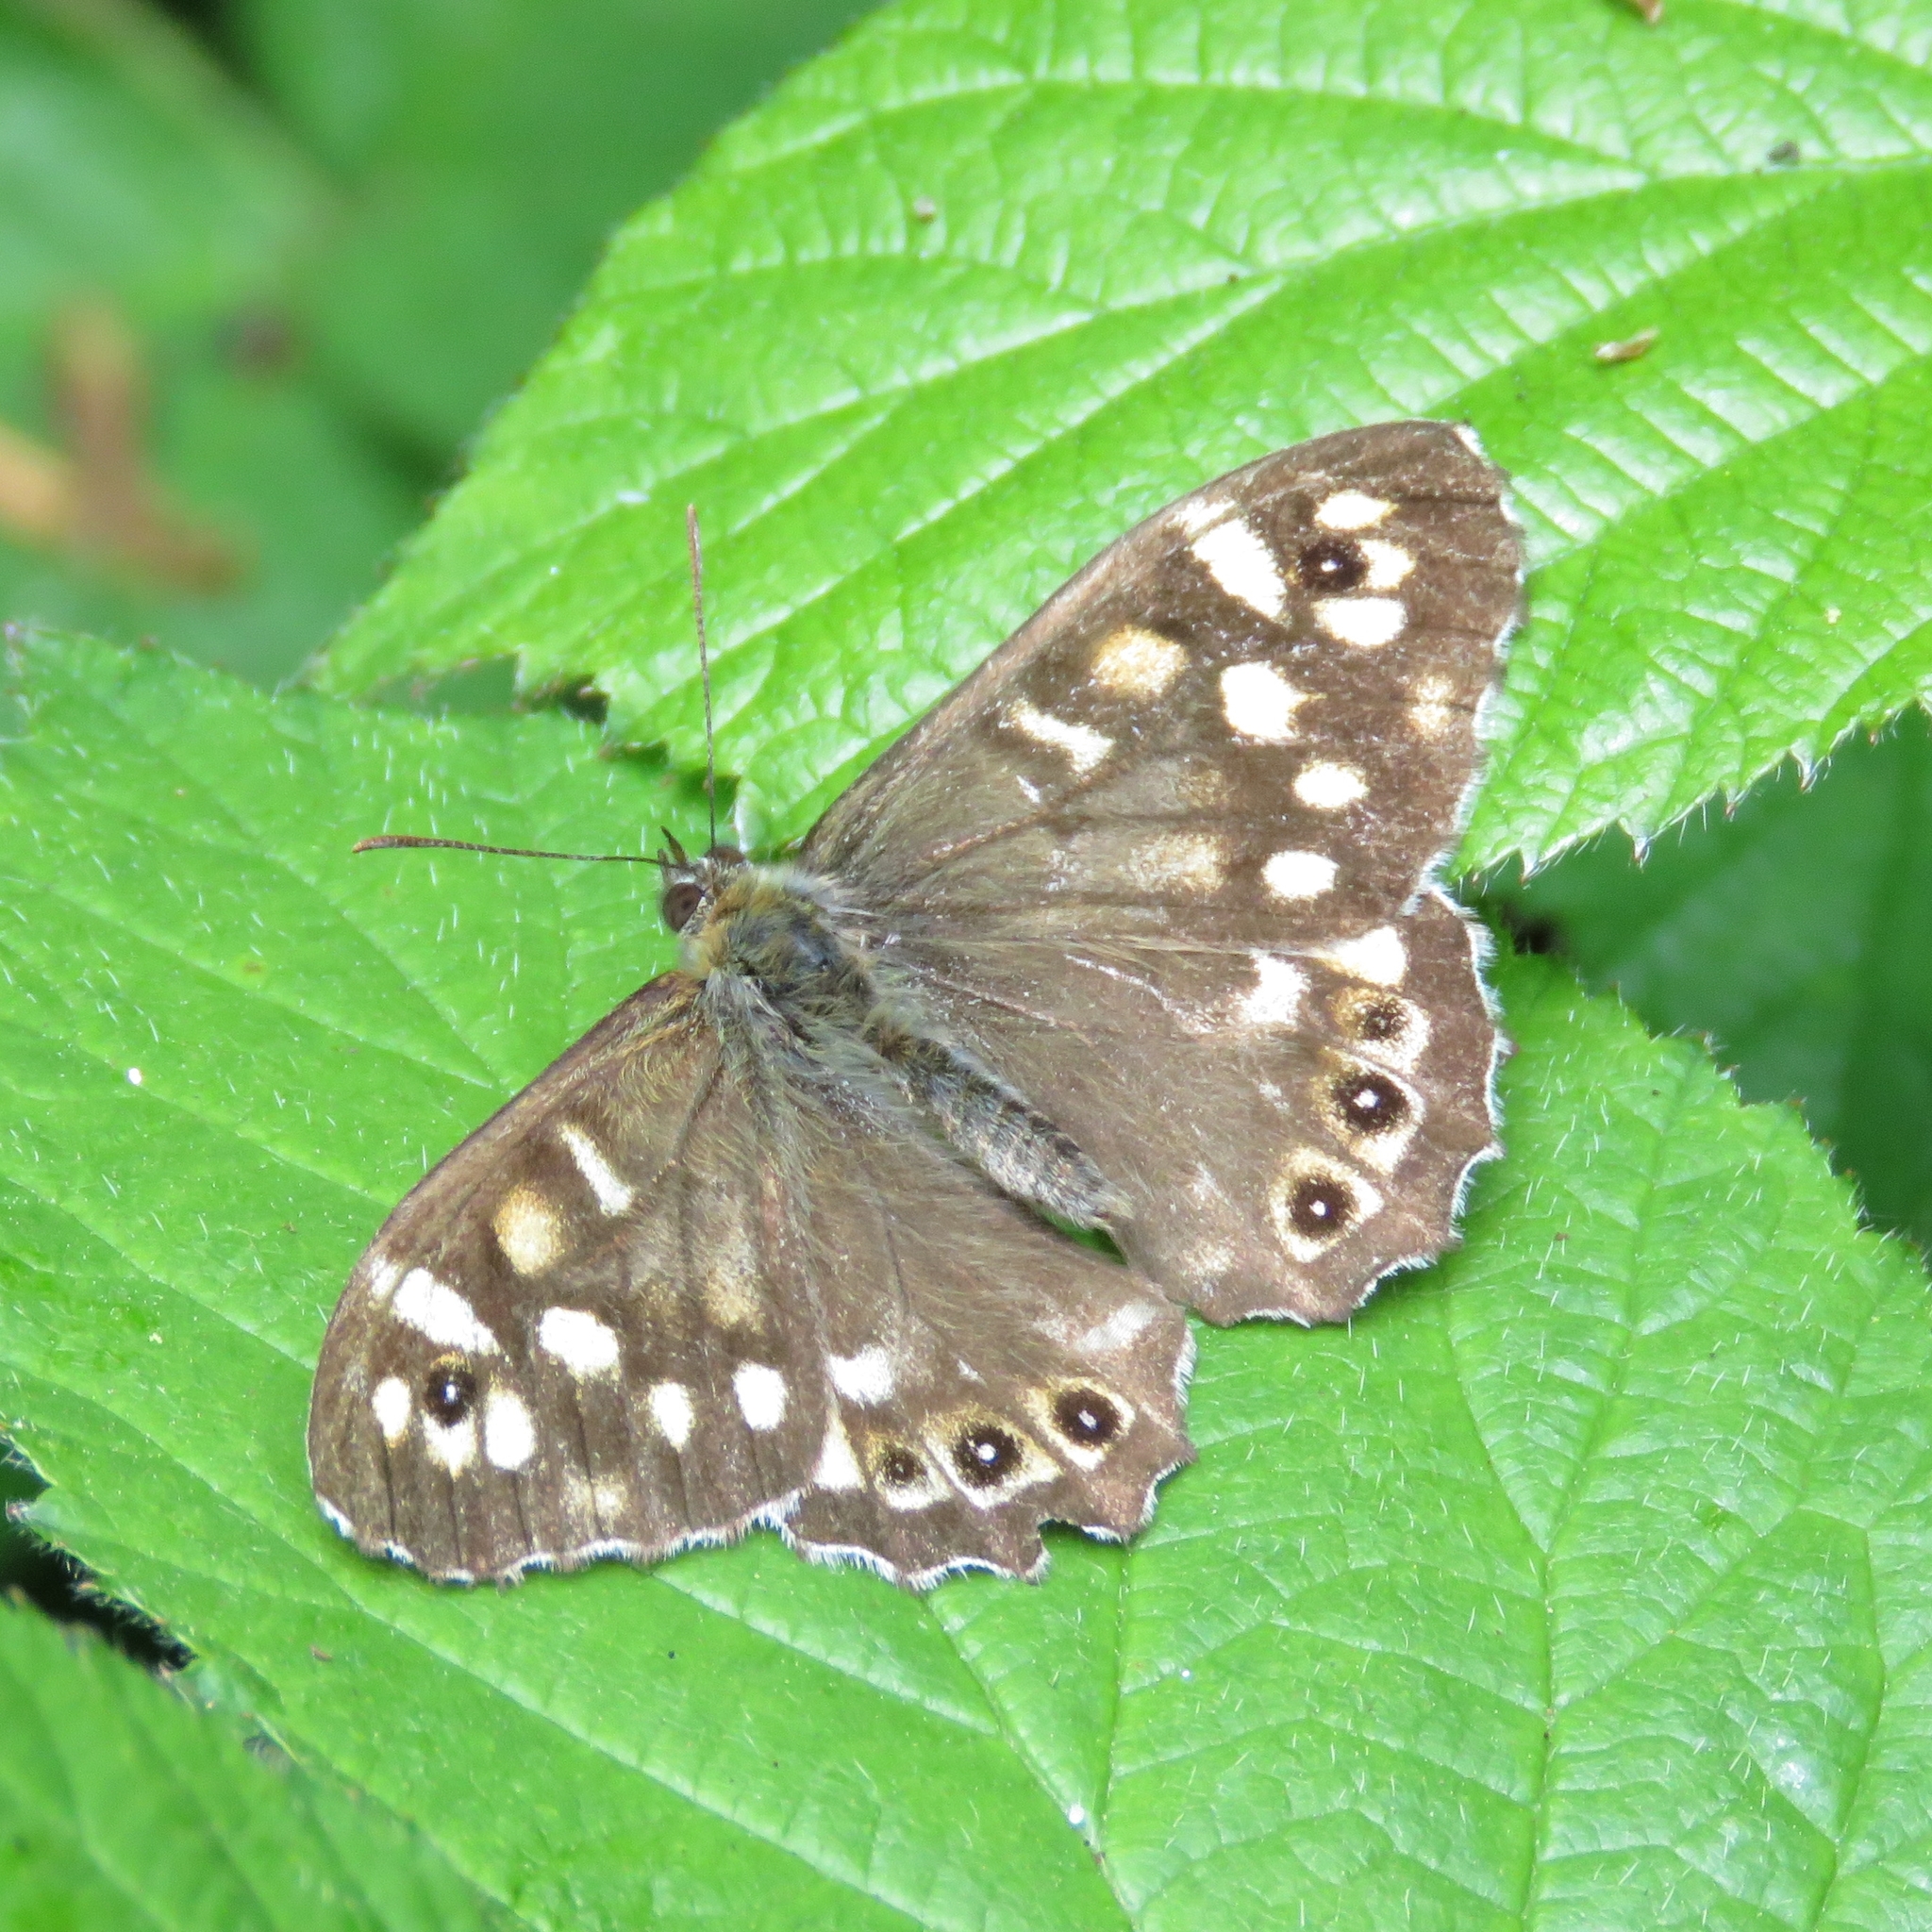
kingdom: Animalia
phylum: Arthropoda
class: Insecta
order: Lepidoptera
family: Nymphalidae
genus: Pararge
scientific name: Pararge aegeria
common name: Speckled wood
